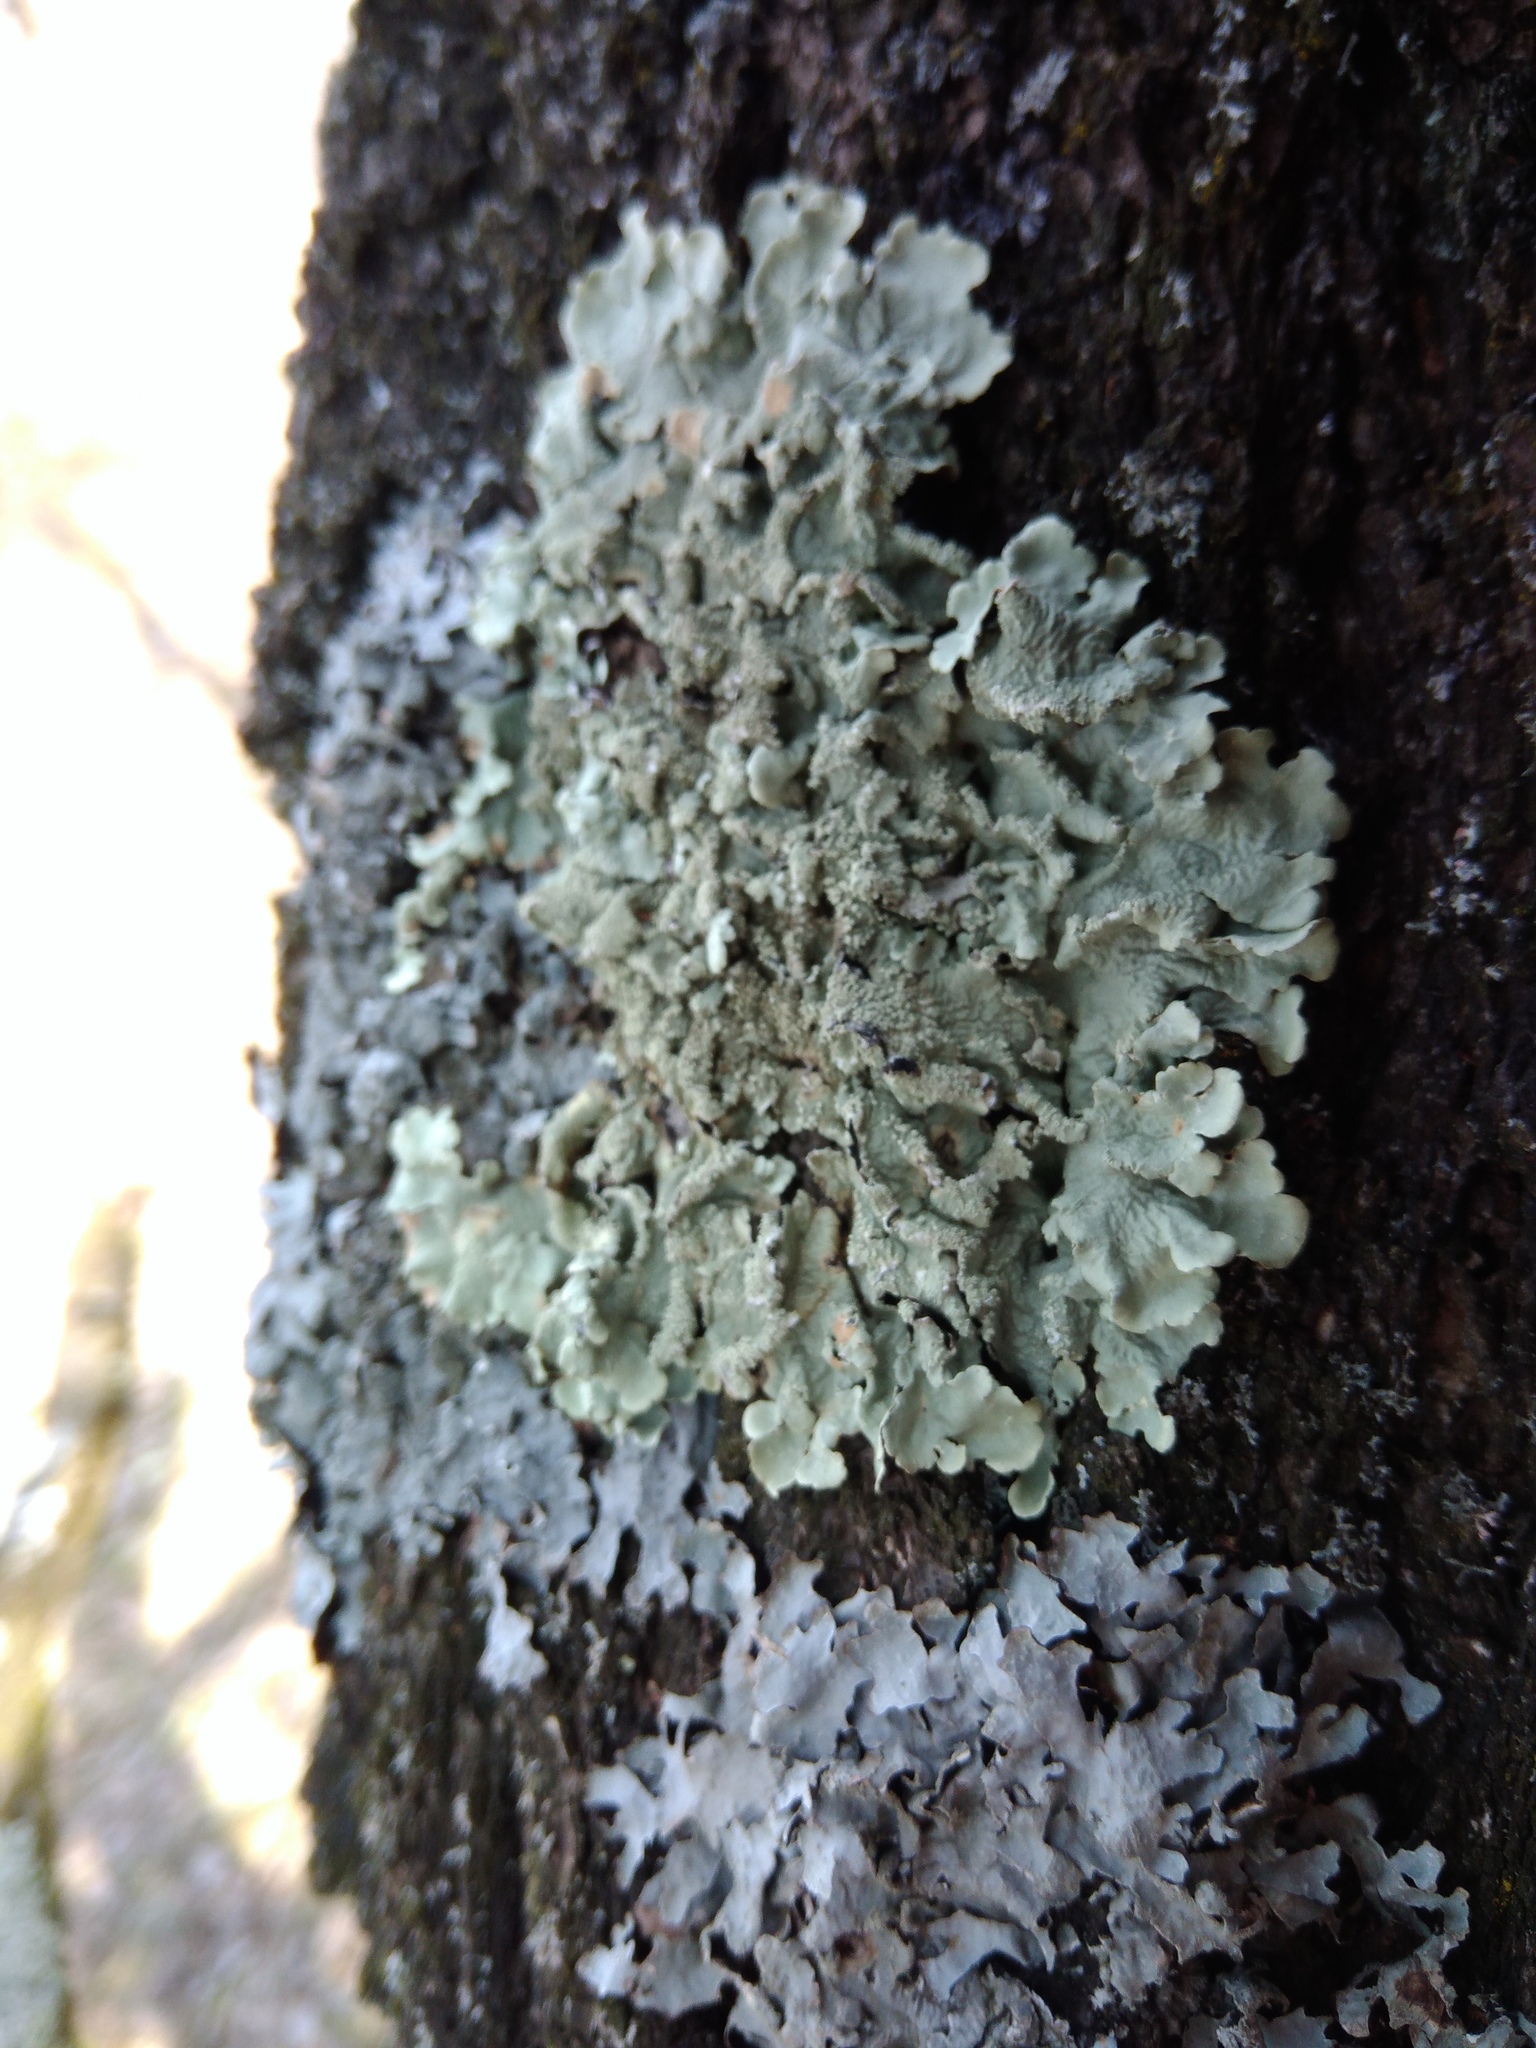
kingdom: Fungi
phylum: Ascomycota
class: Lecanoromycetes
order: Lecanorales
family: Parmeliaceae
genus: Flavoparmelia
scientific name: Flavoparmelia caperata
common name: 40-mile per hour lichen
